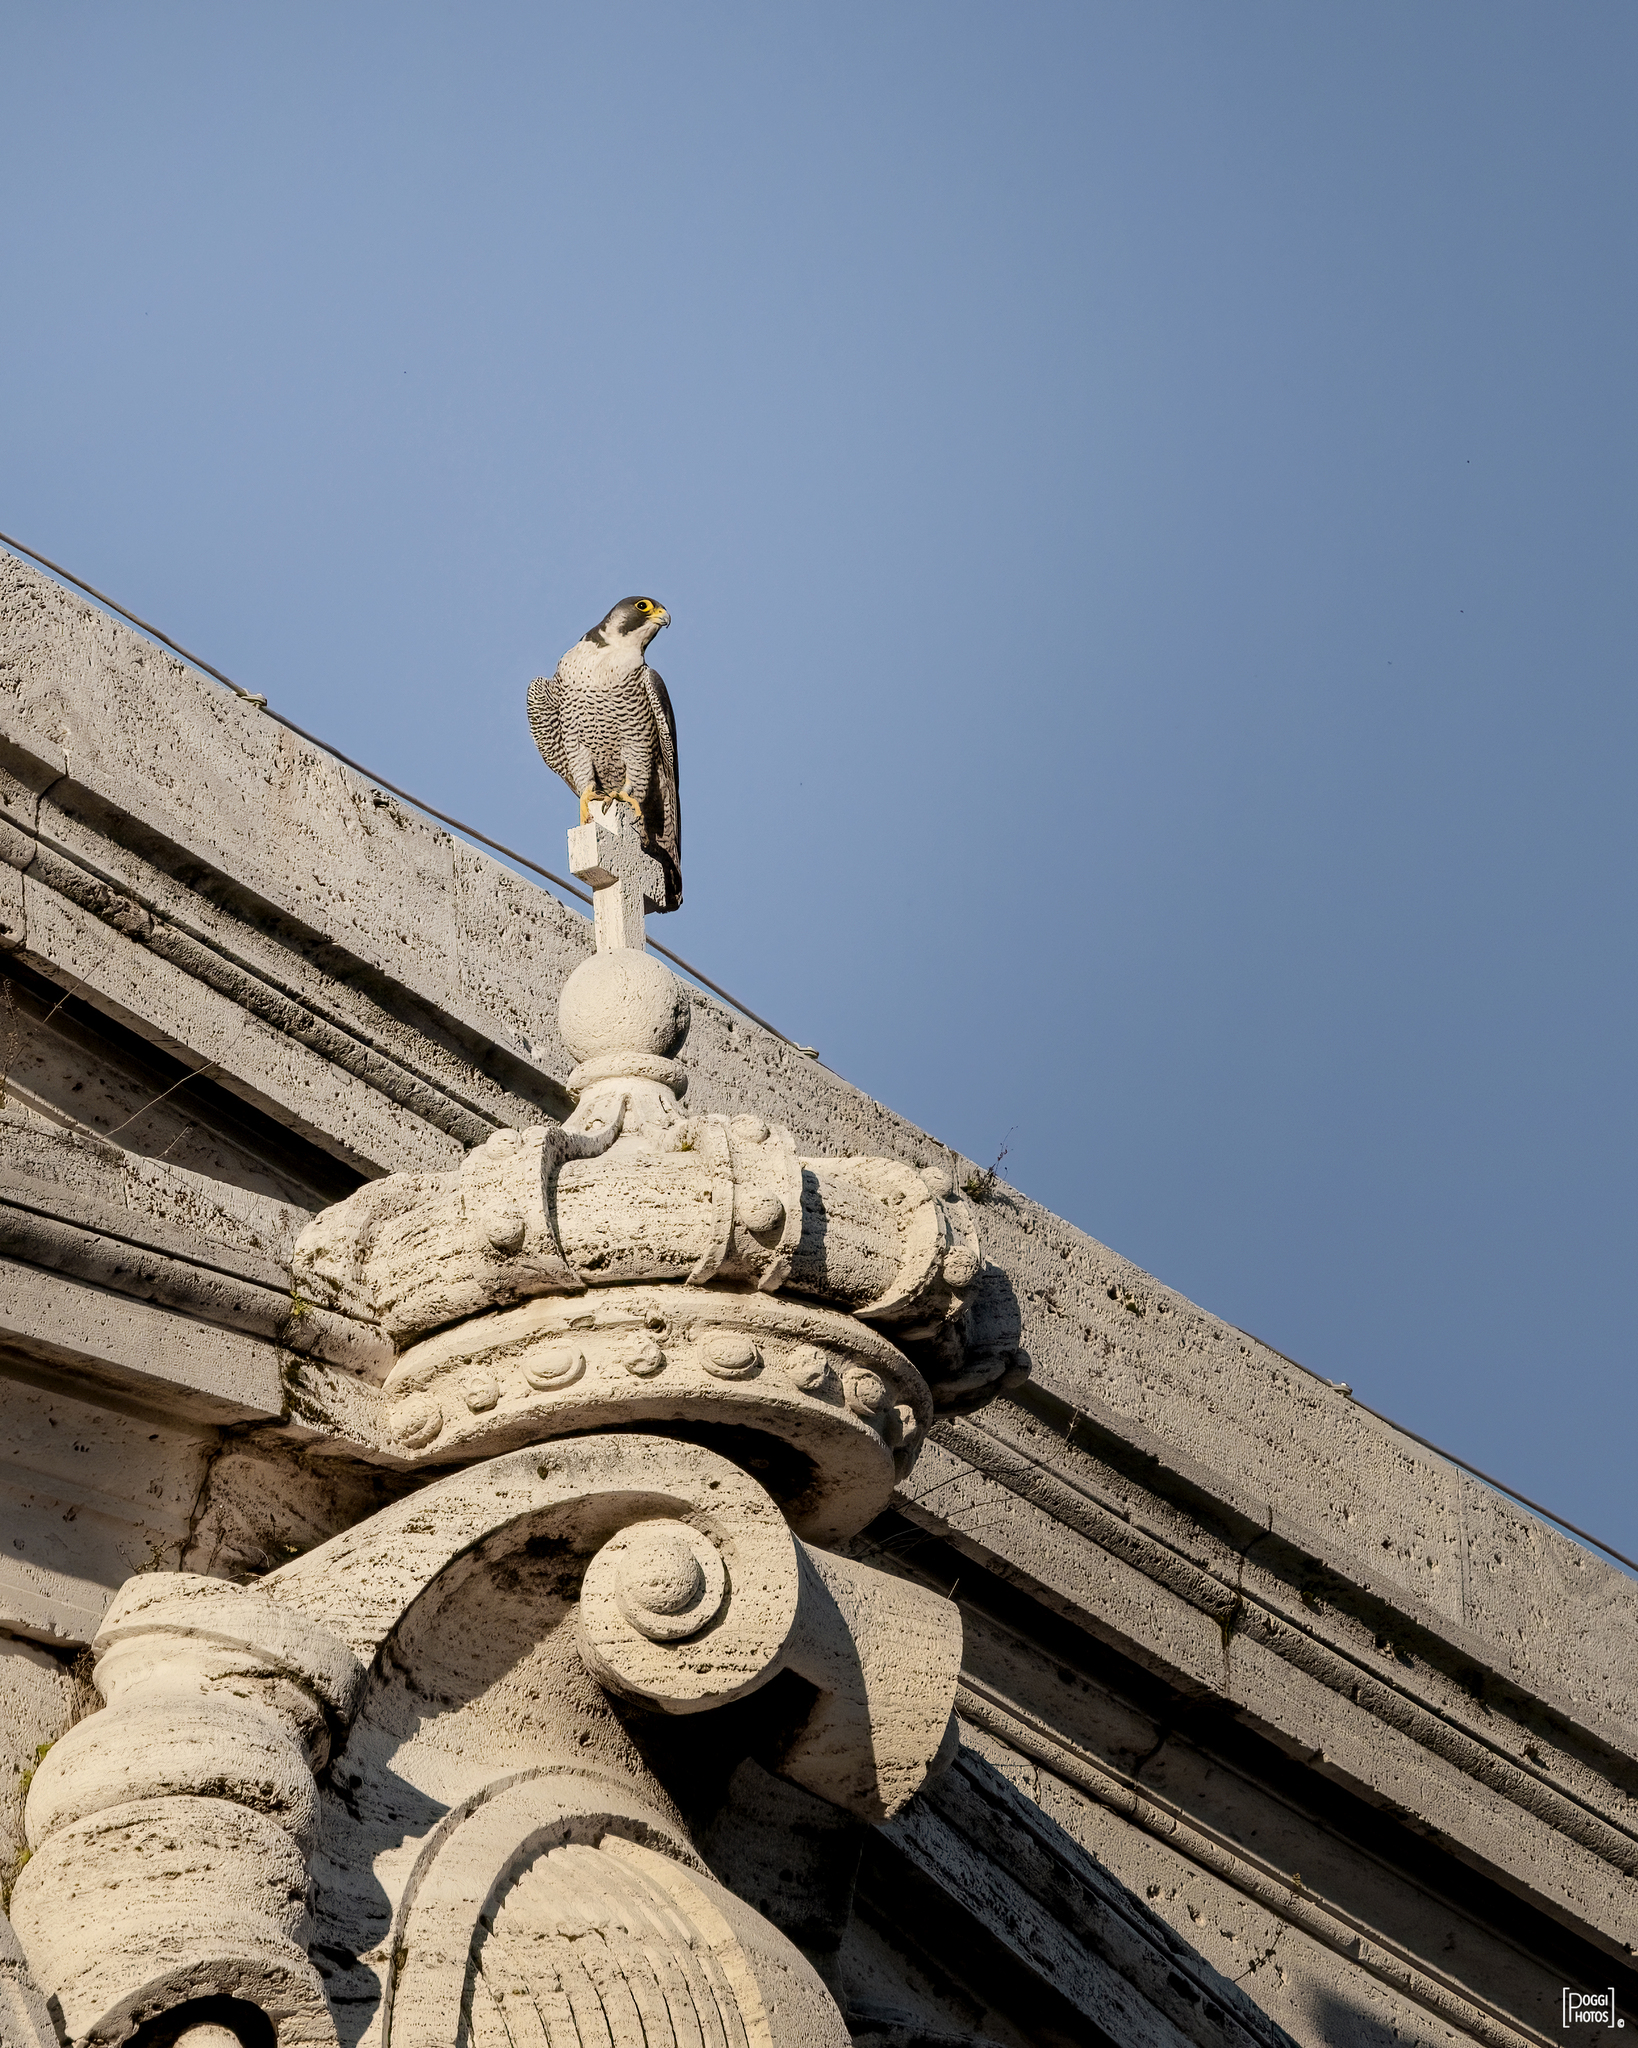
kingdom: Animalia
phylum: Chordata
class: Aves
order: Falconiformes
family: Falconidae
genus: Falco
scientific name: Falco peregrinus
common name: Peregrine falcon
